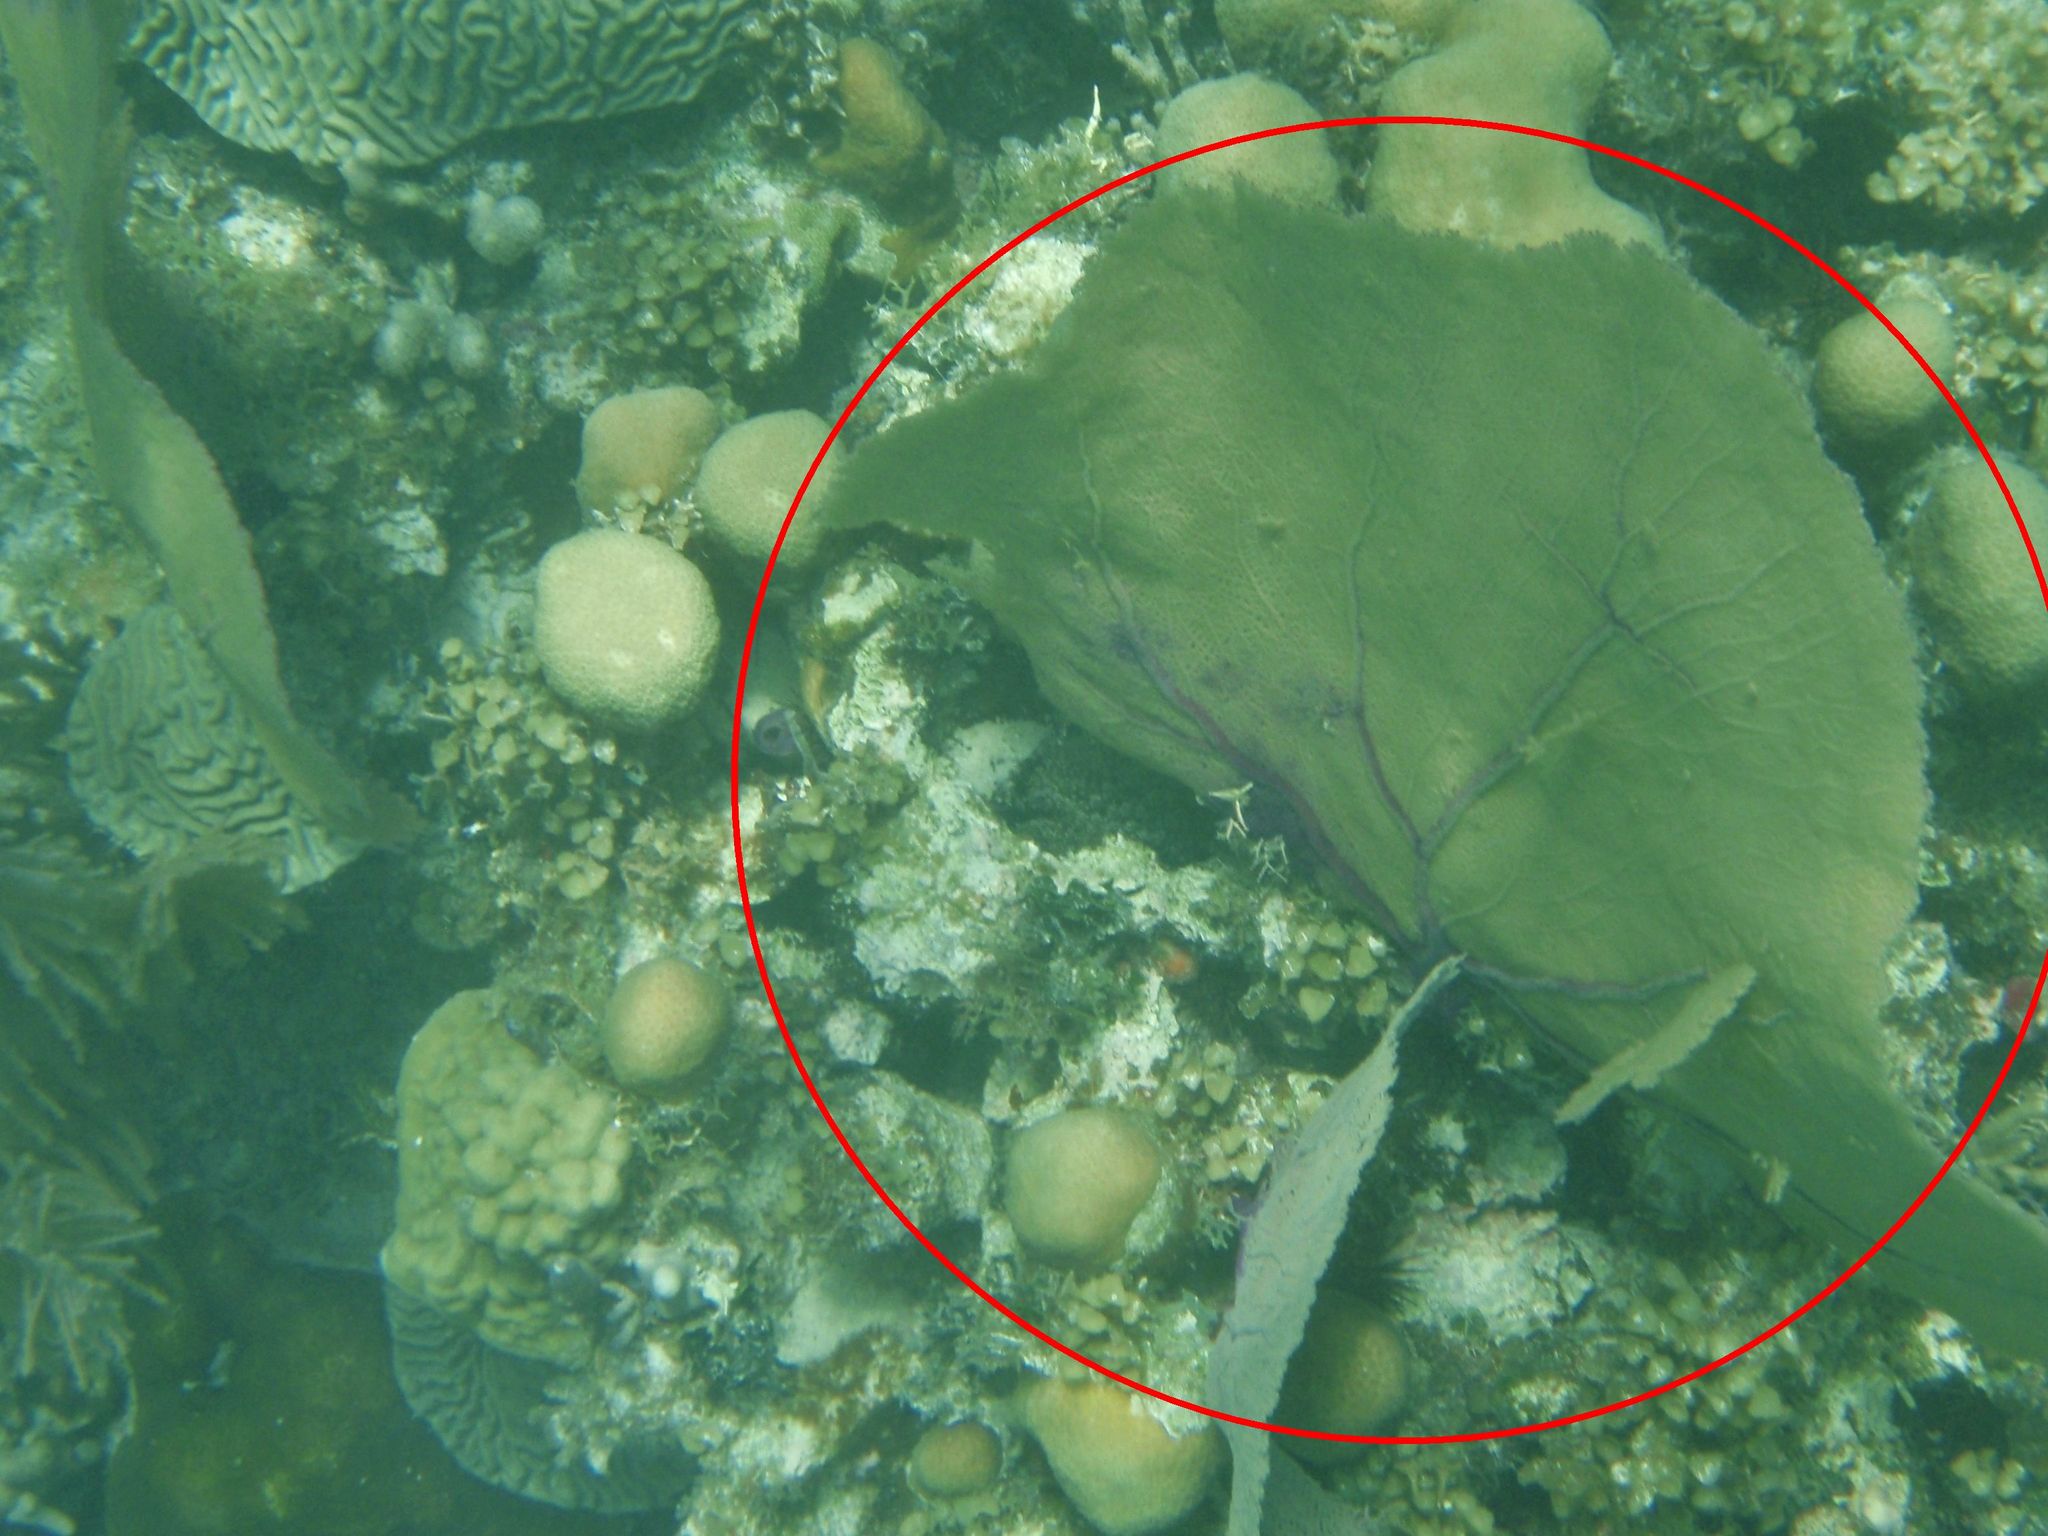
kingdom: Animalia
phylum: Cnidaria
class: Anthozoa
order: Malacalcyonacea
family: Gorgoniidae
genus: Gorgonia
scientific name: Gorgonia ventalina
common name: Common sea fan
